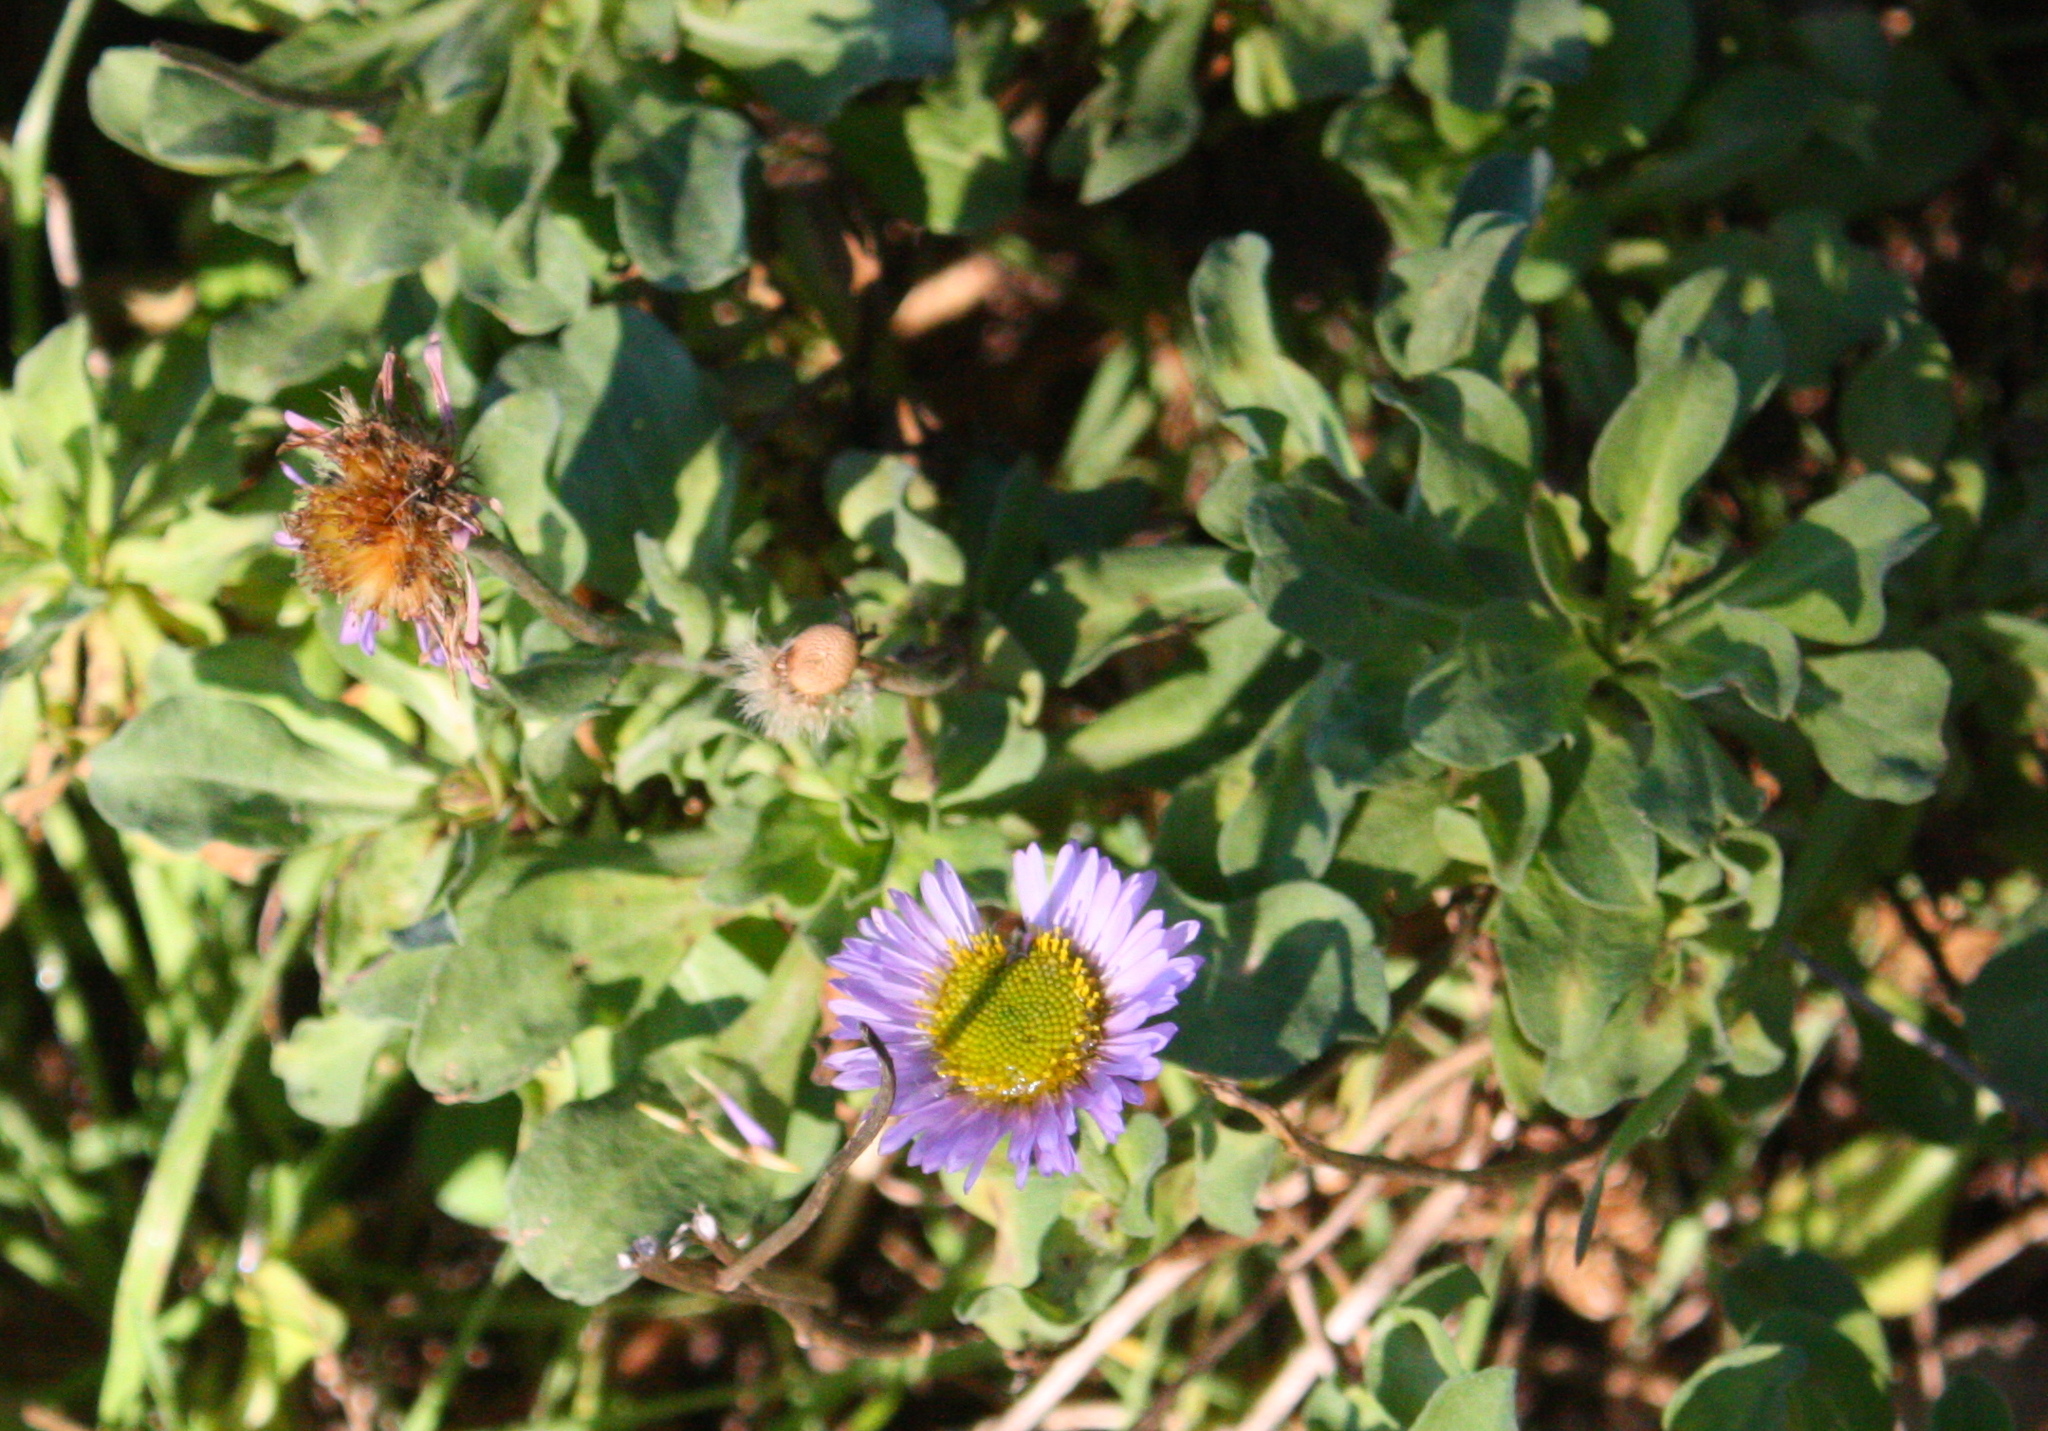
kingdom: Plantae
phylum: Tracheophyta
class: Magnoliopsida
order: Asterales
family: Asteraceae
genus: Erigeron
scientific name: Erigeron glaucus
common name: Seaside daisy
